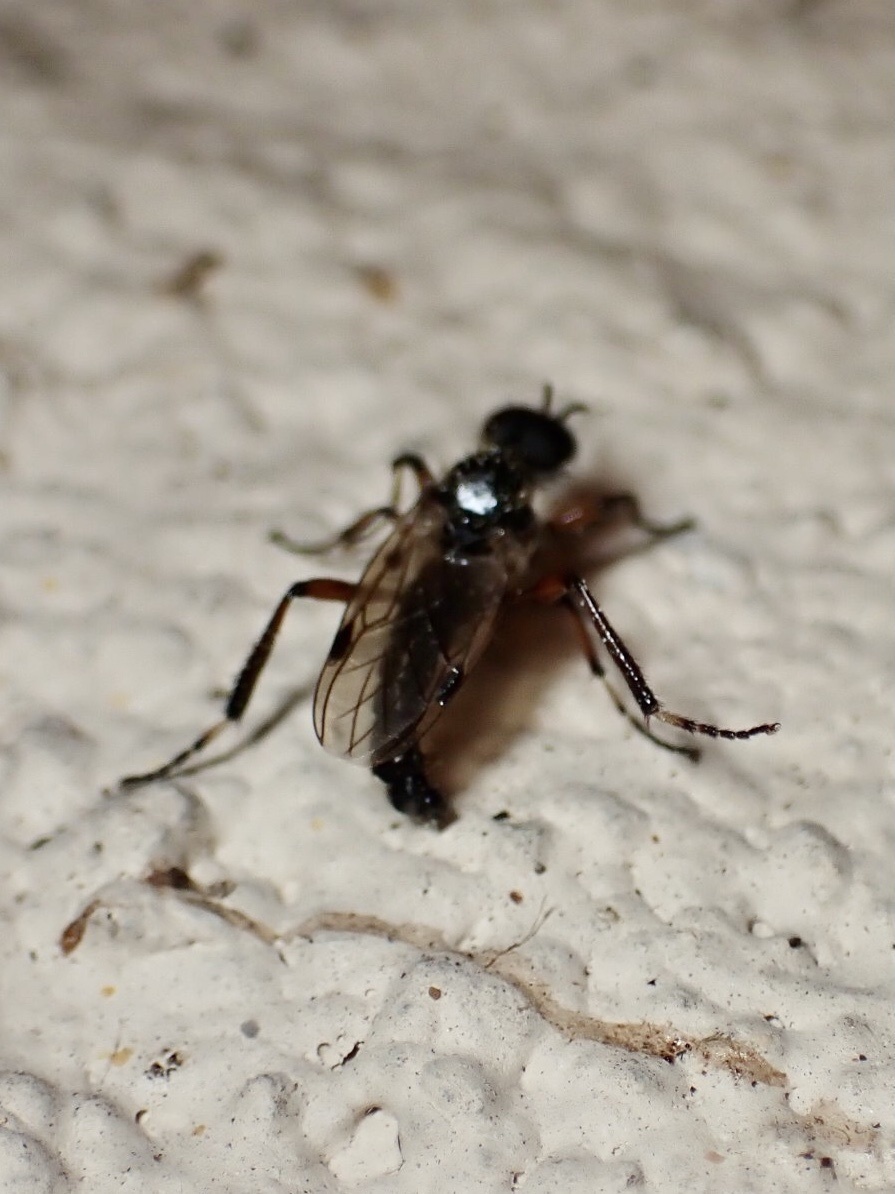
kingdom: Animalia
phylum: Arthropoda
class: Insecta
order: Diptera
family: Bibionidae
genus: Bibio
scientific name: Bibio articulatus
